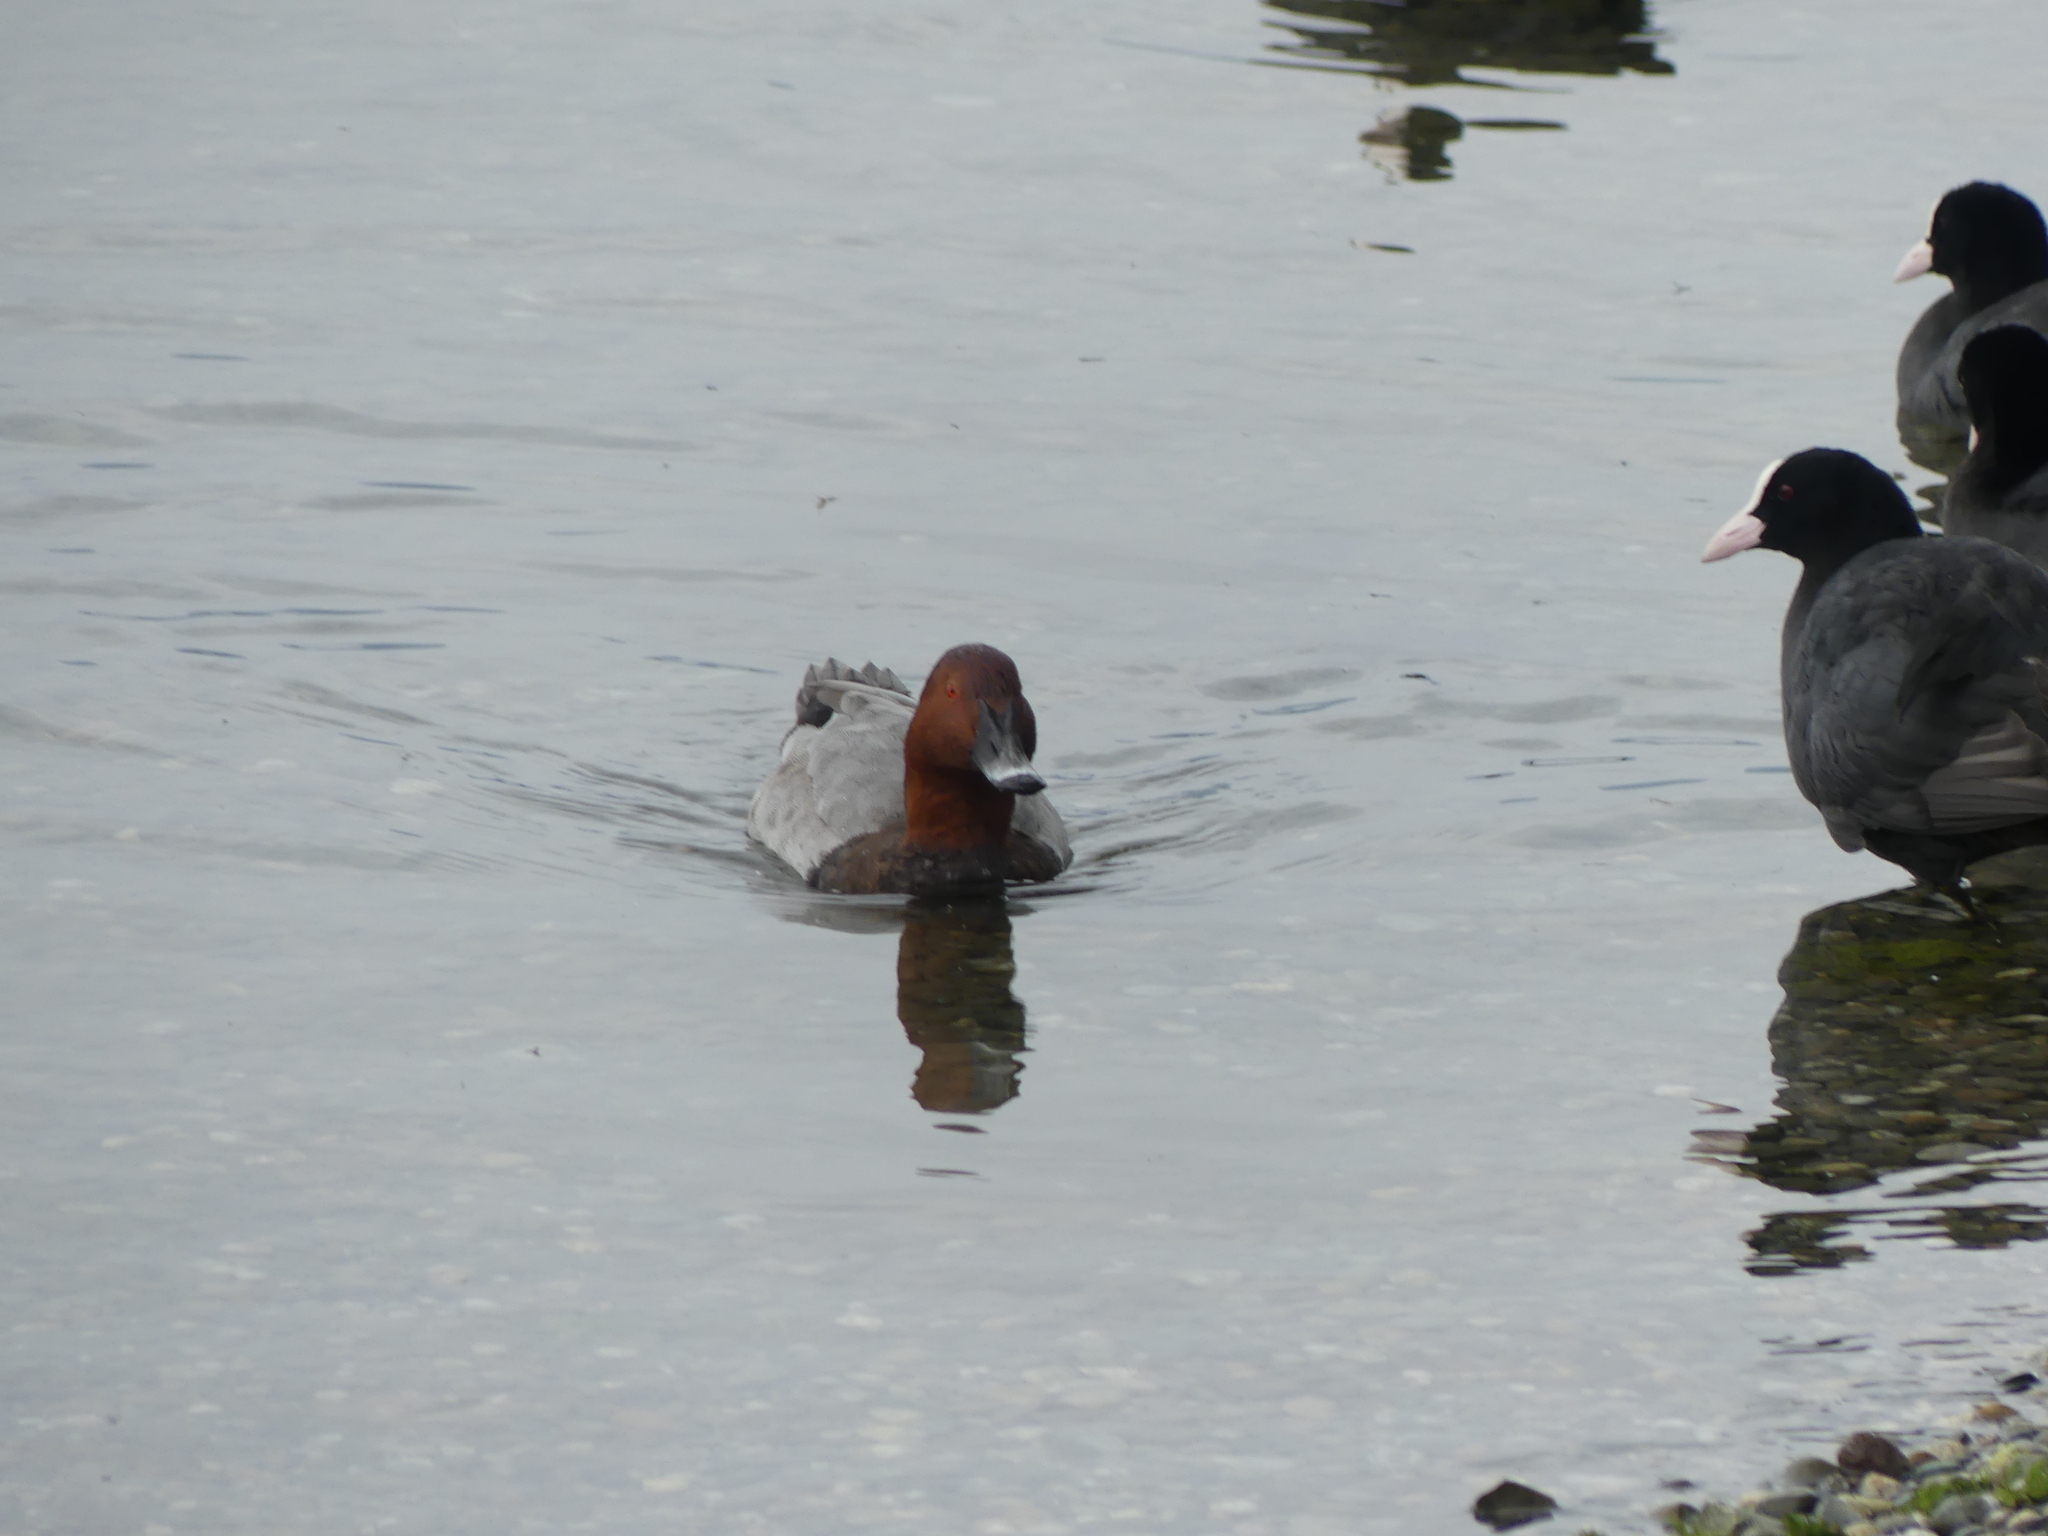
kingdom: Animalia
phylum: Chordata
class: Aves
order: Anseriformes
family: Anatidae
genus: Aythya
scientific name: Aythya ferina
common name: Common pochard
